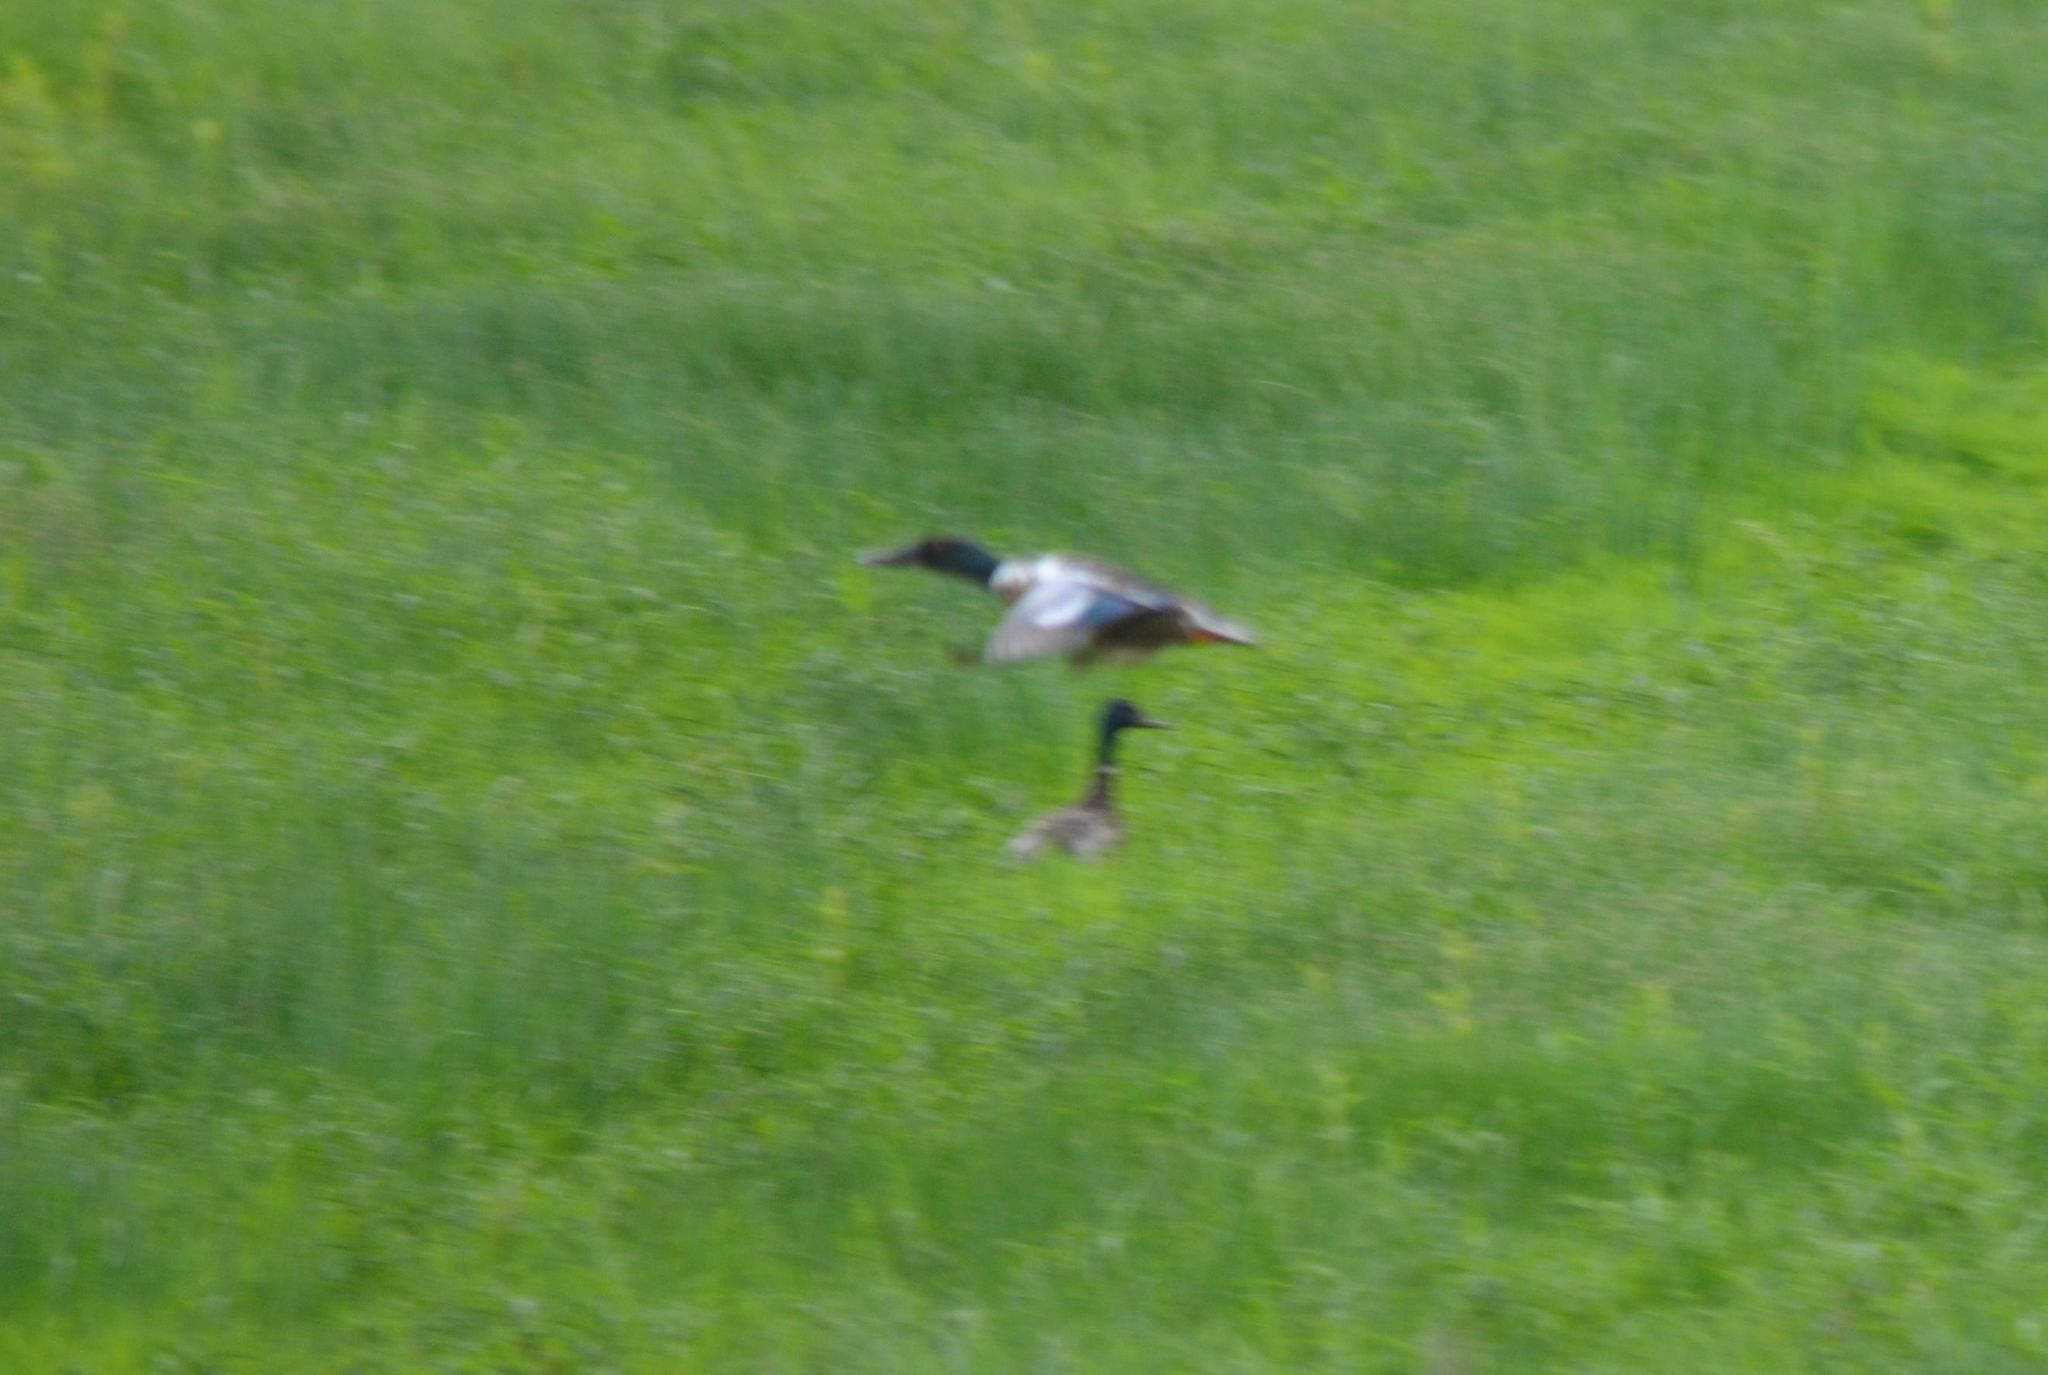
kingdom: Animalia
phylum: Chordata
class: Aves
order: Anseriformes
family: Anatidae
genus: Spatula
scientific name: Spatula clypeata
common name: Northern shoveler
